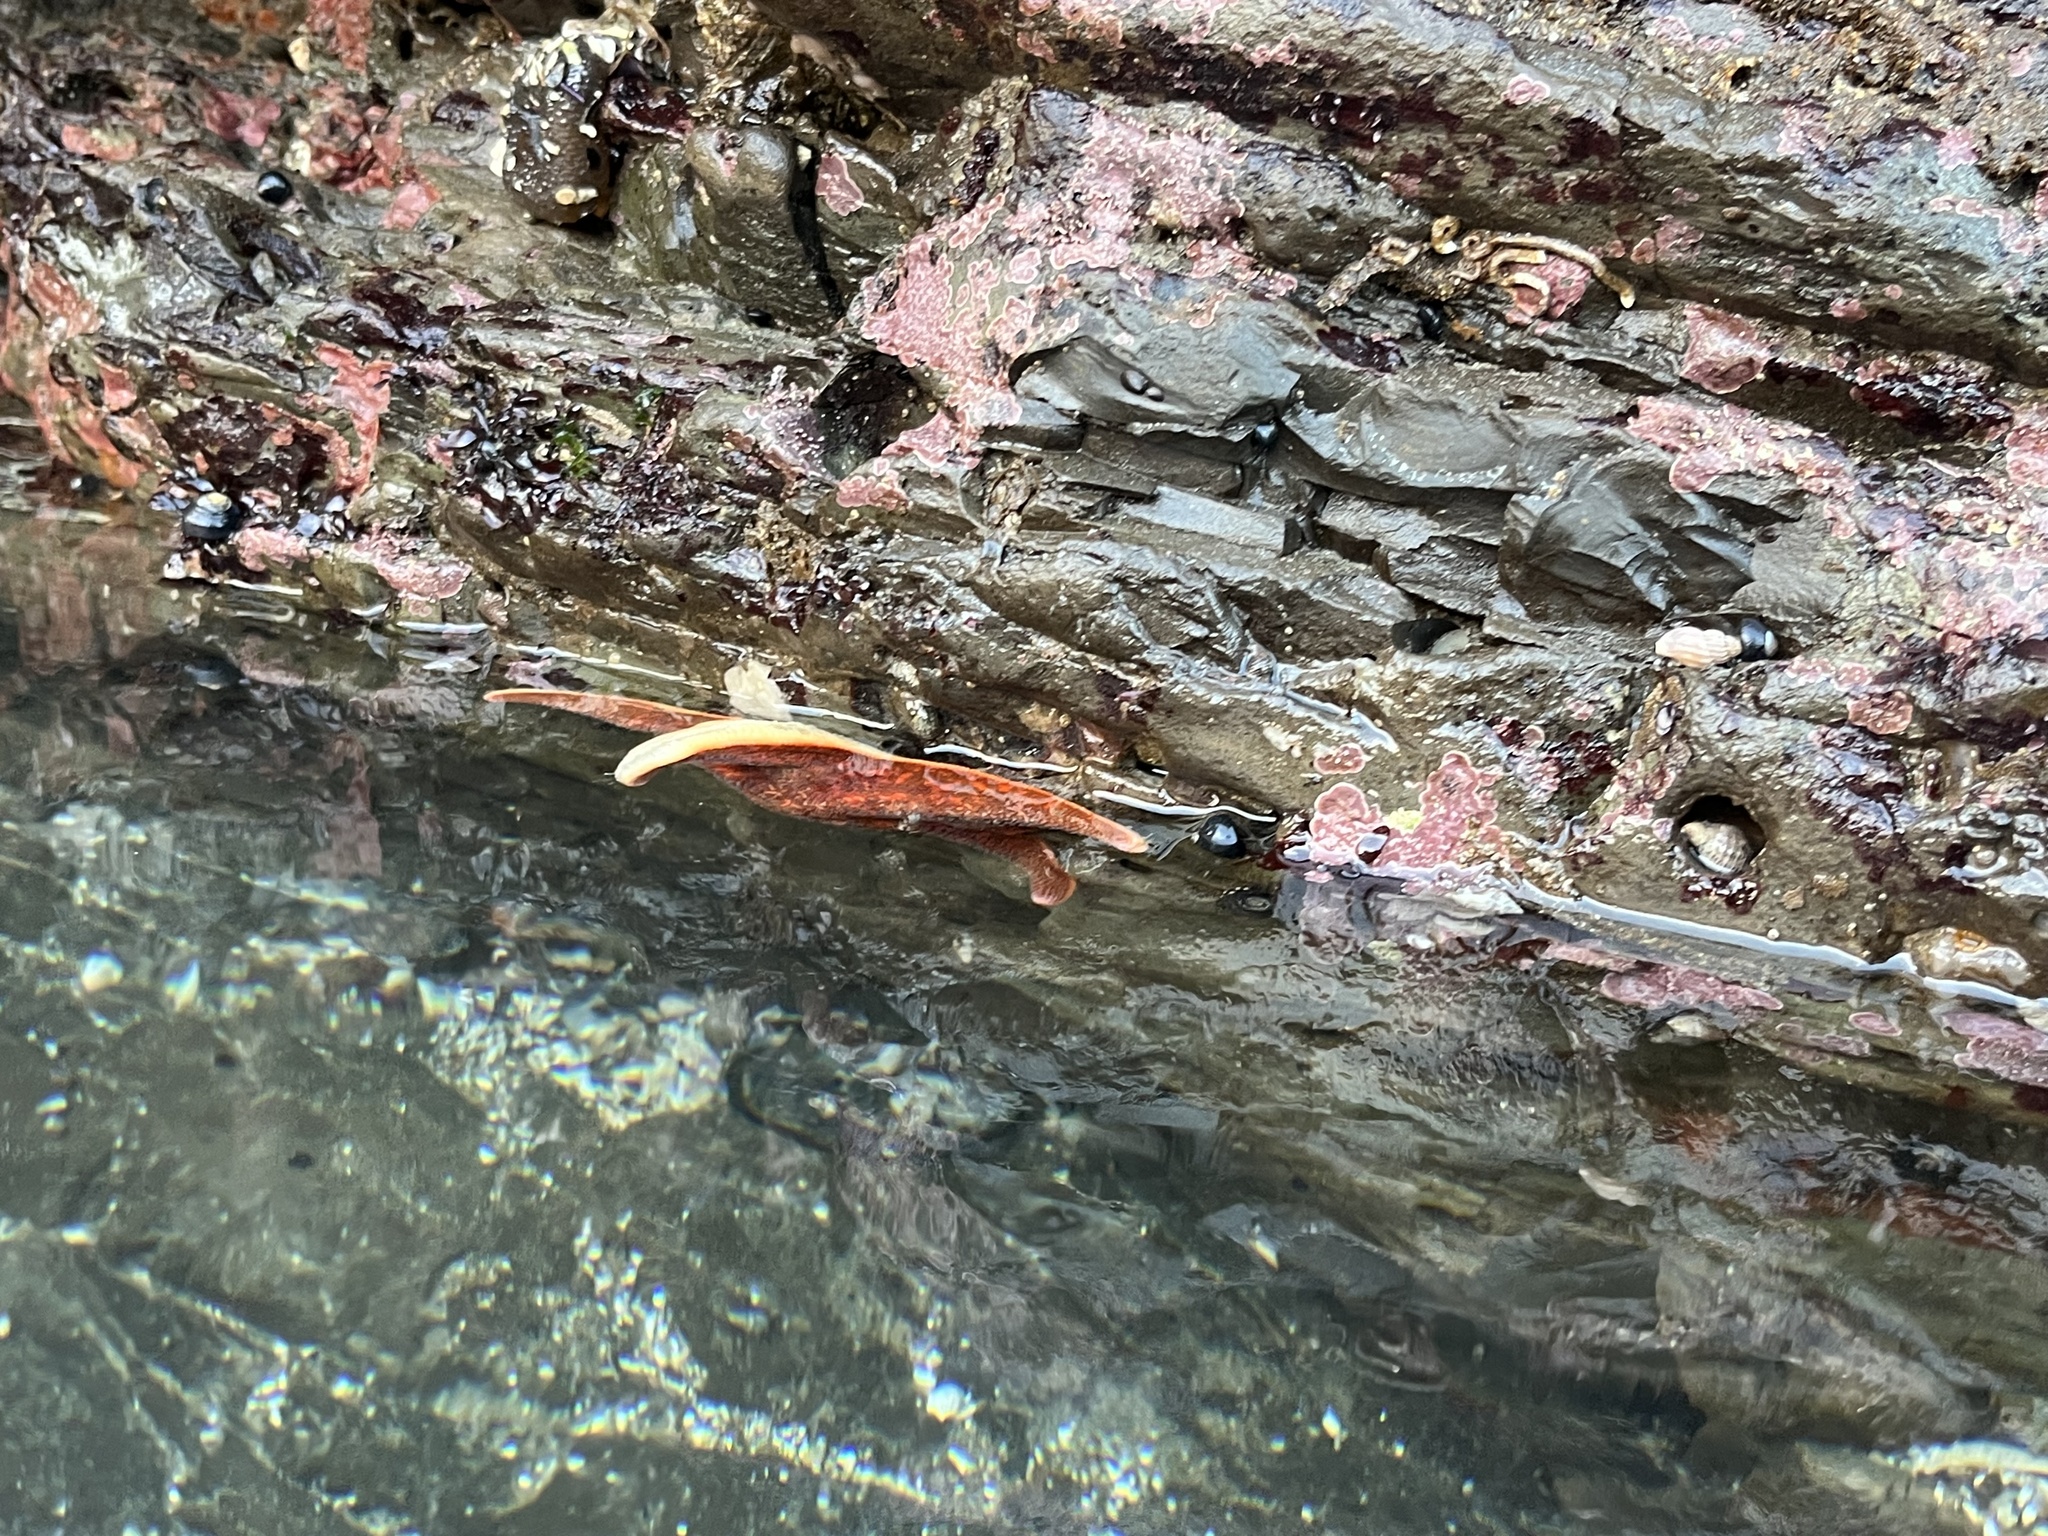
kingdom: Animalia
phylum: Echinodermata
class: Asteroidea
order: Valvatida
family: Asterinidae
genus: Patiria
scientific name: Patiria miniata
